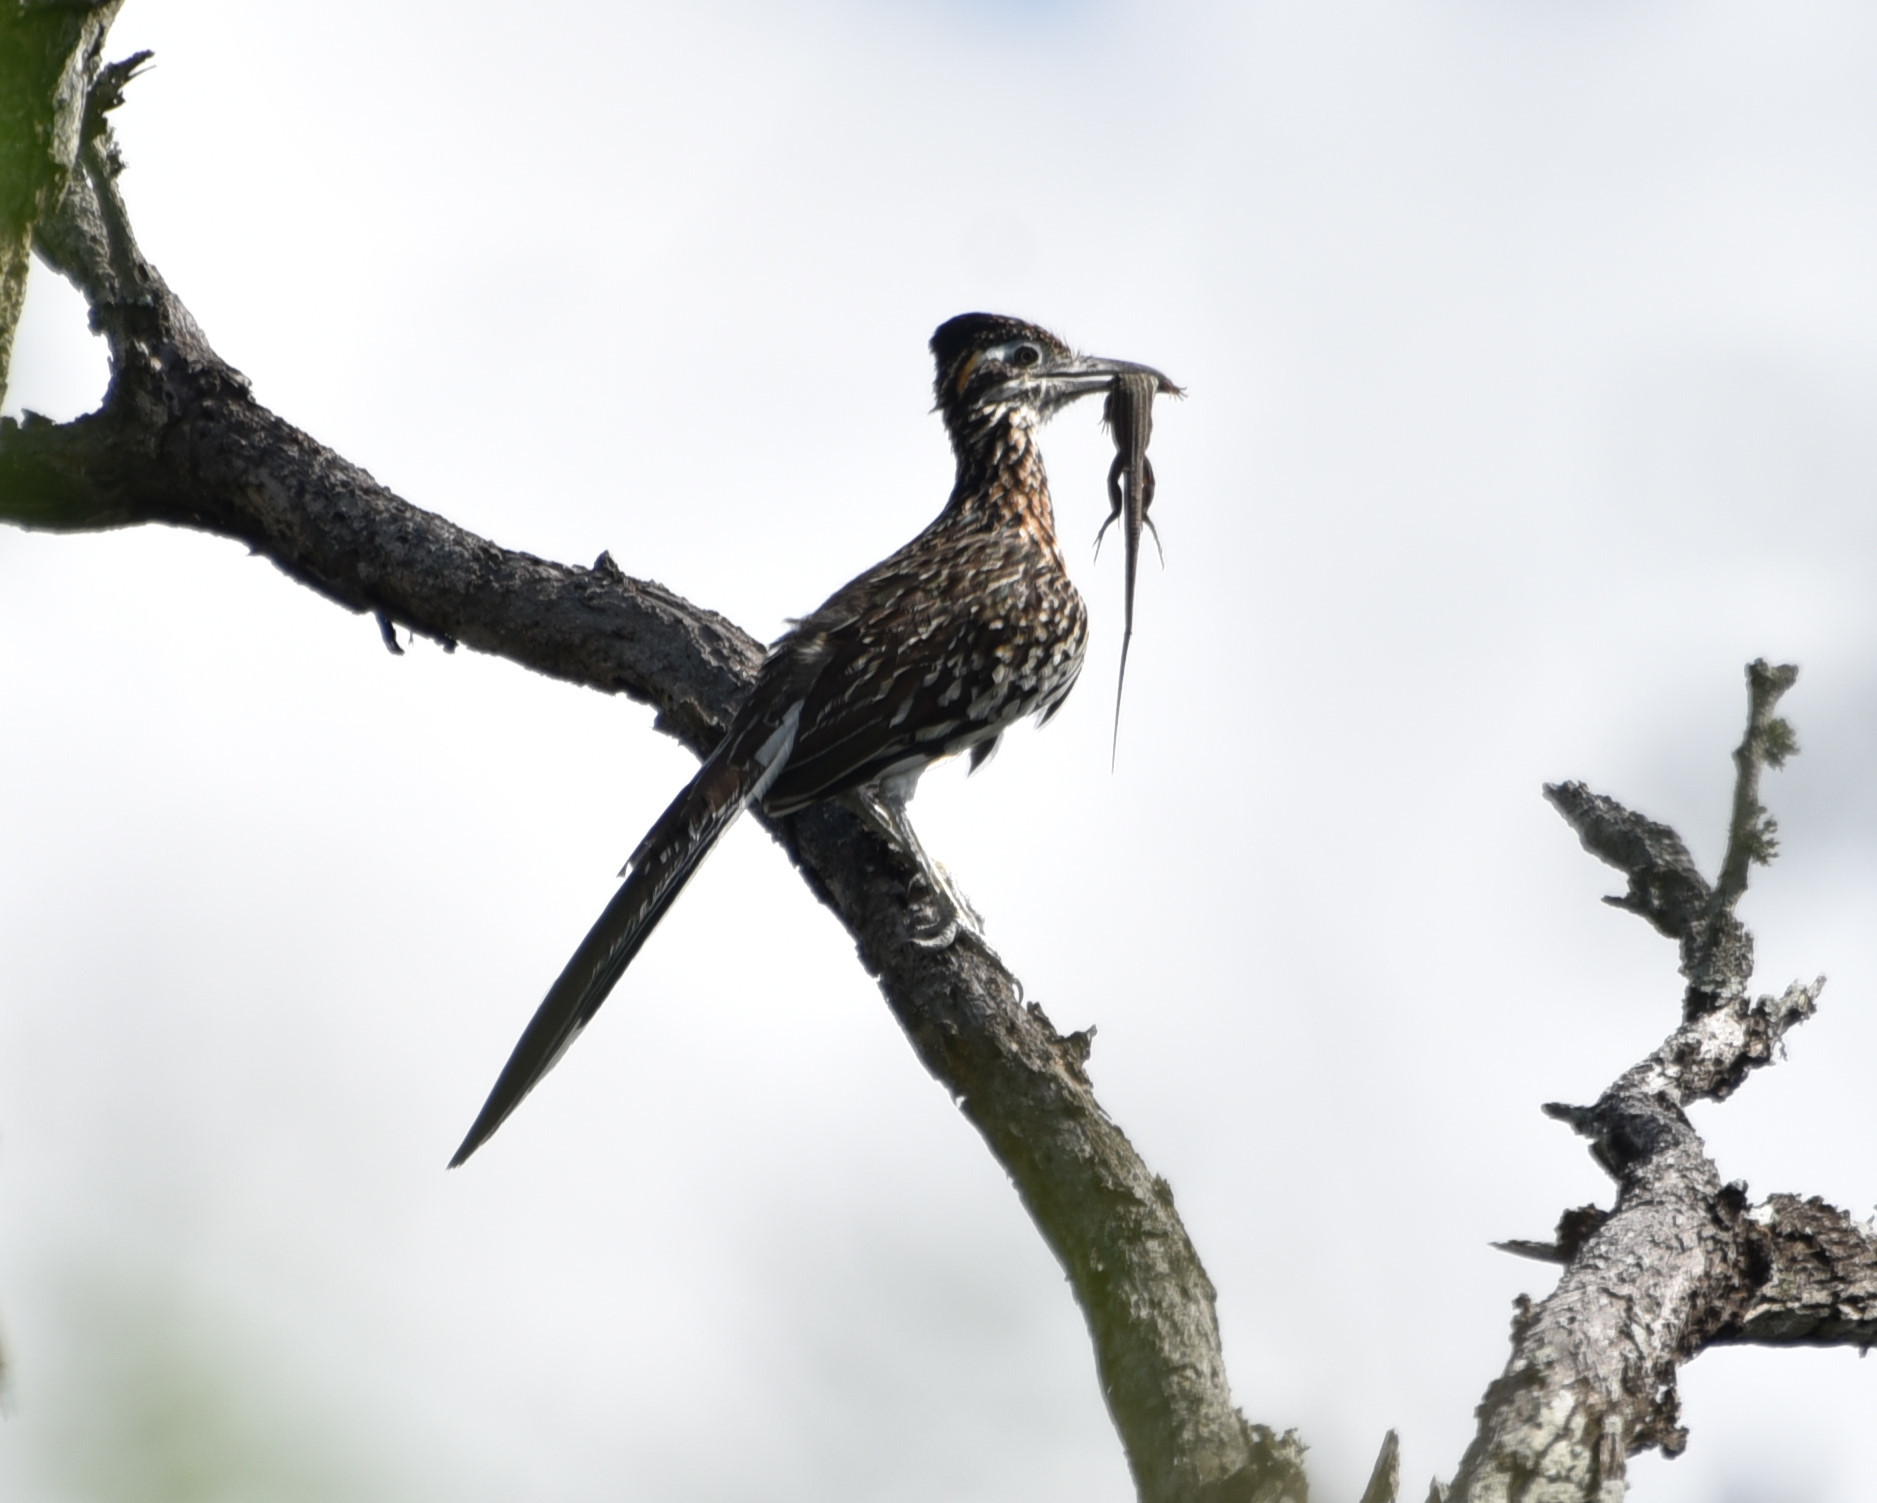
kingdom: Animalia
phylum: Chordata
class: Aves
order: Cuculiformes
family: Cuculidae
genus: Geococcyx
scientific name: Geococcyx californianus
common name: Greater roadrunner
